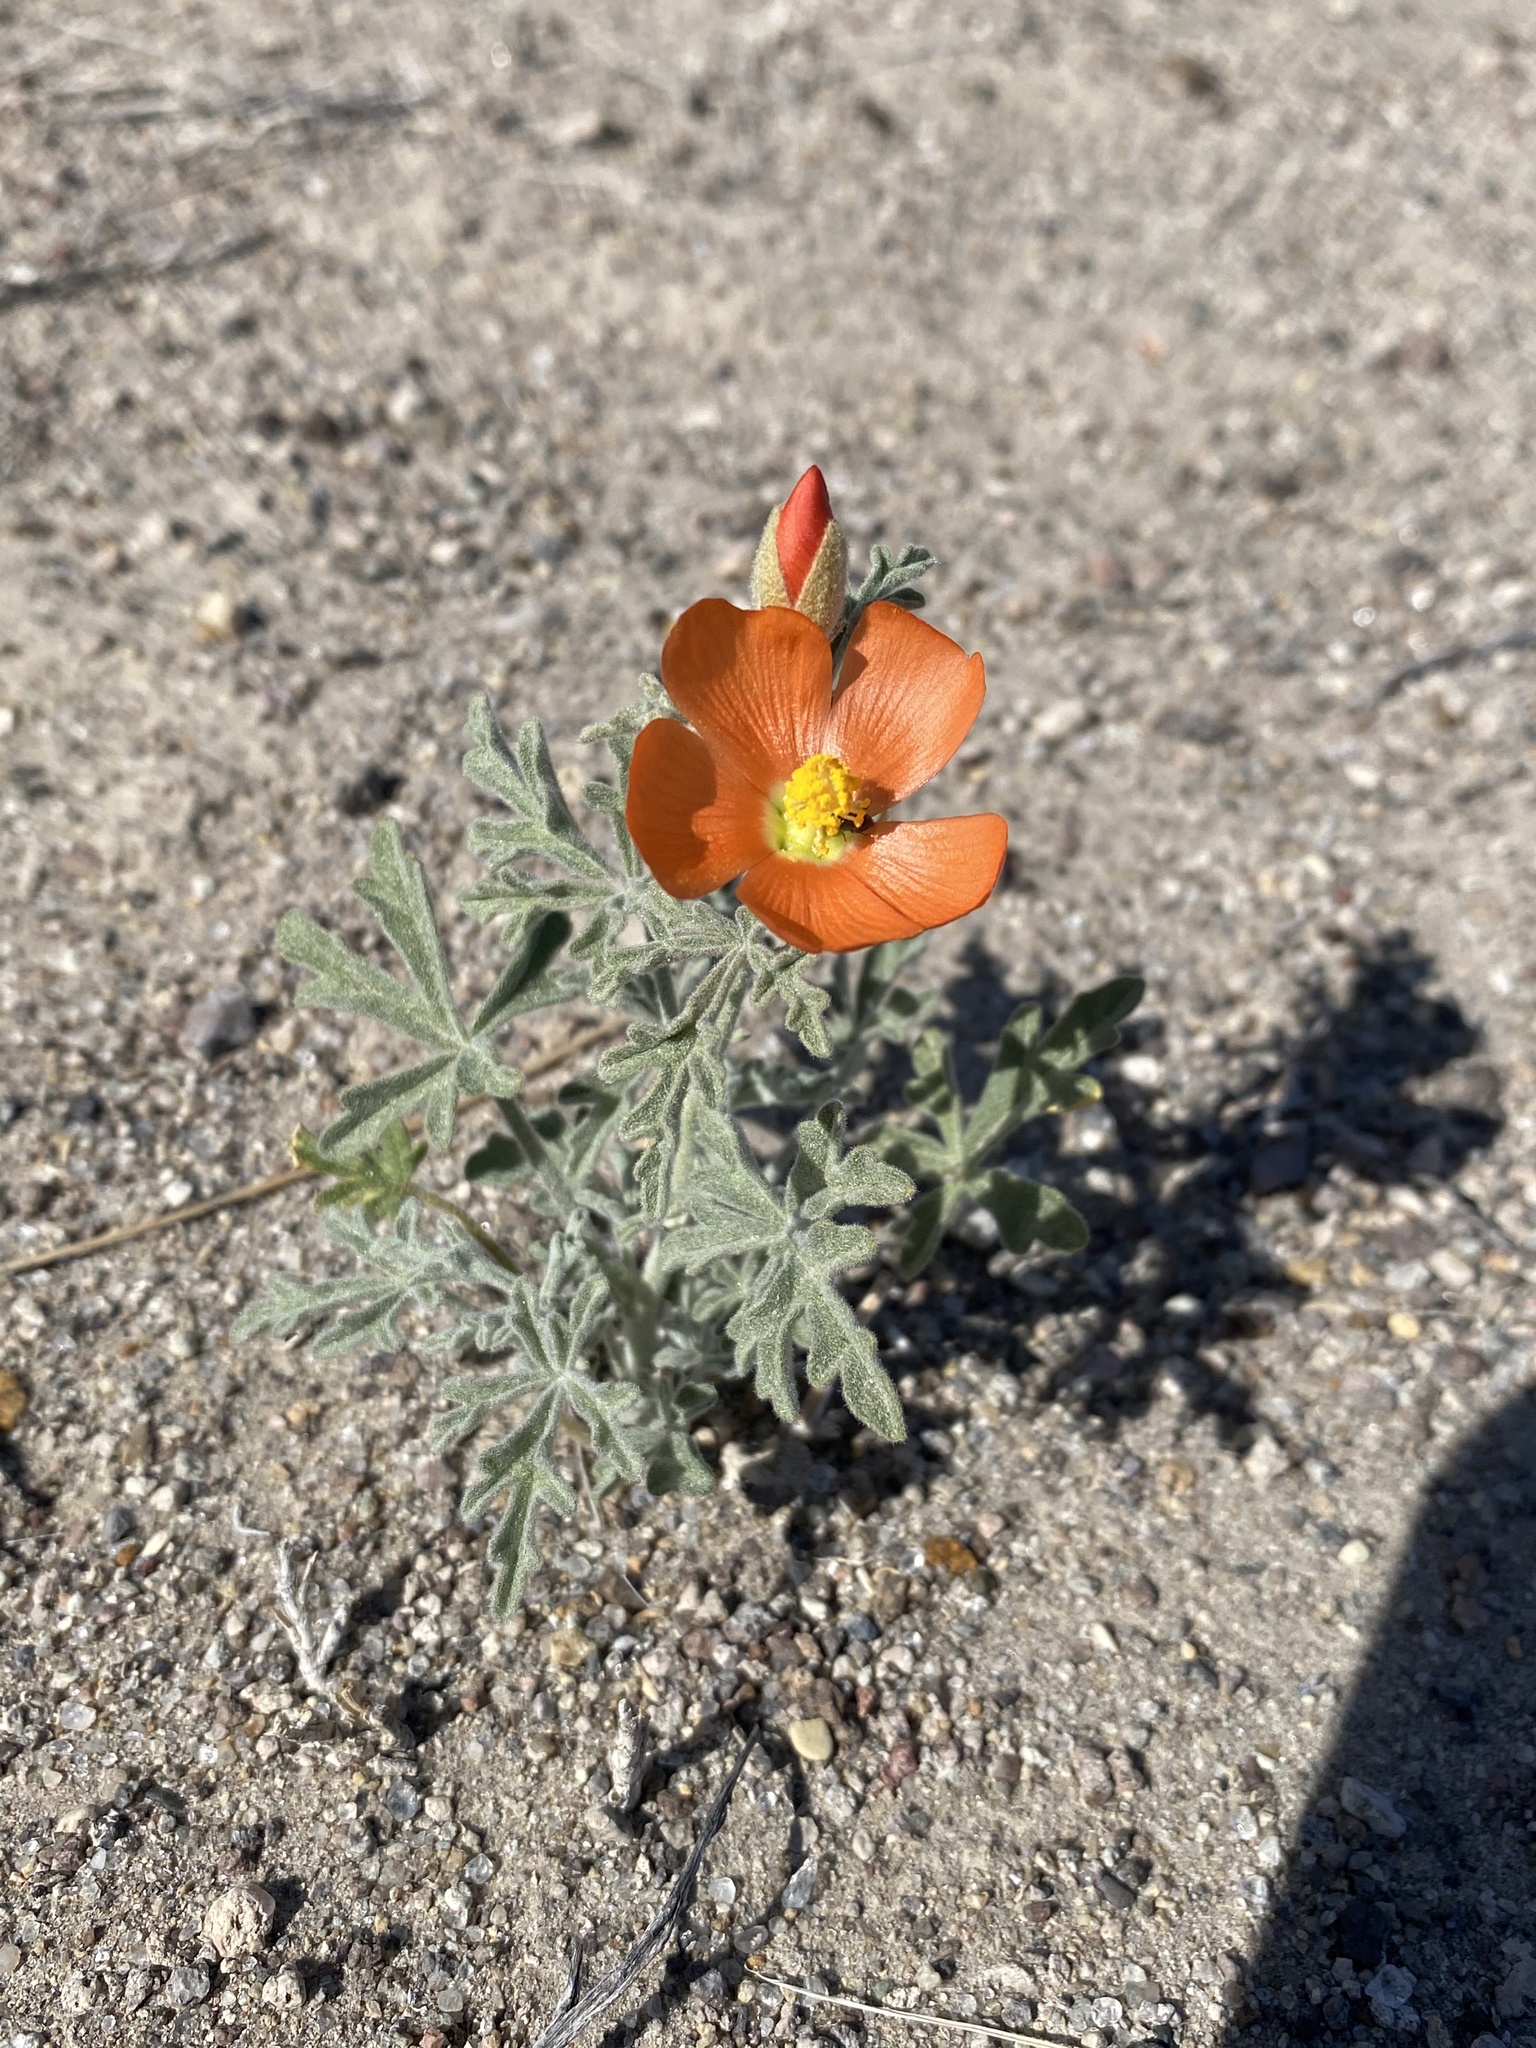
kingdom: Plantae
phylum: Tracheophyta
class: Magnoliopsida
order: Malvales
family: Malvaceae
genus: Sphaeralcea
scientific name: Sphaeralcea grossulariifolia
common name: Current-leaf globe-mallow
